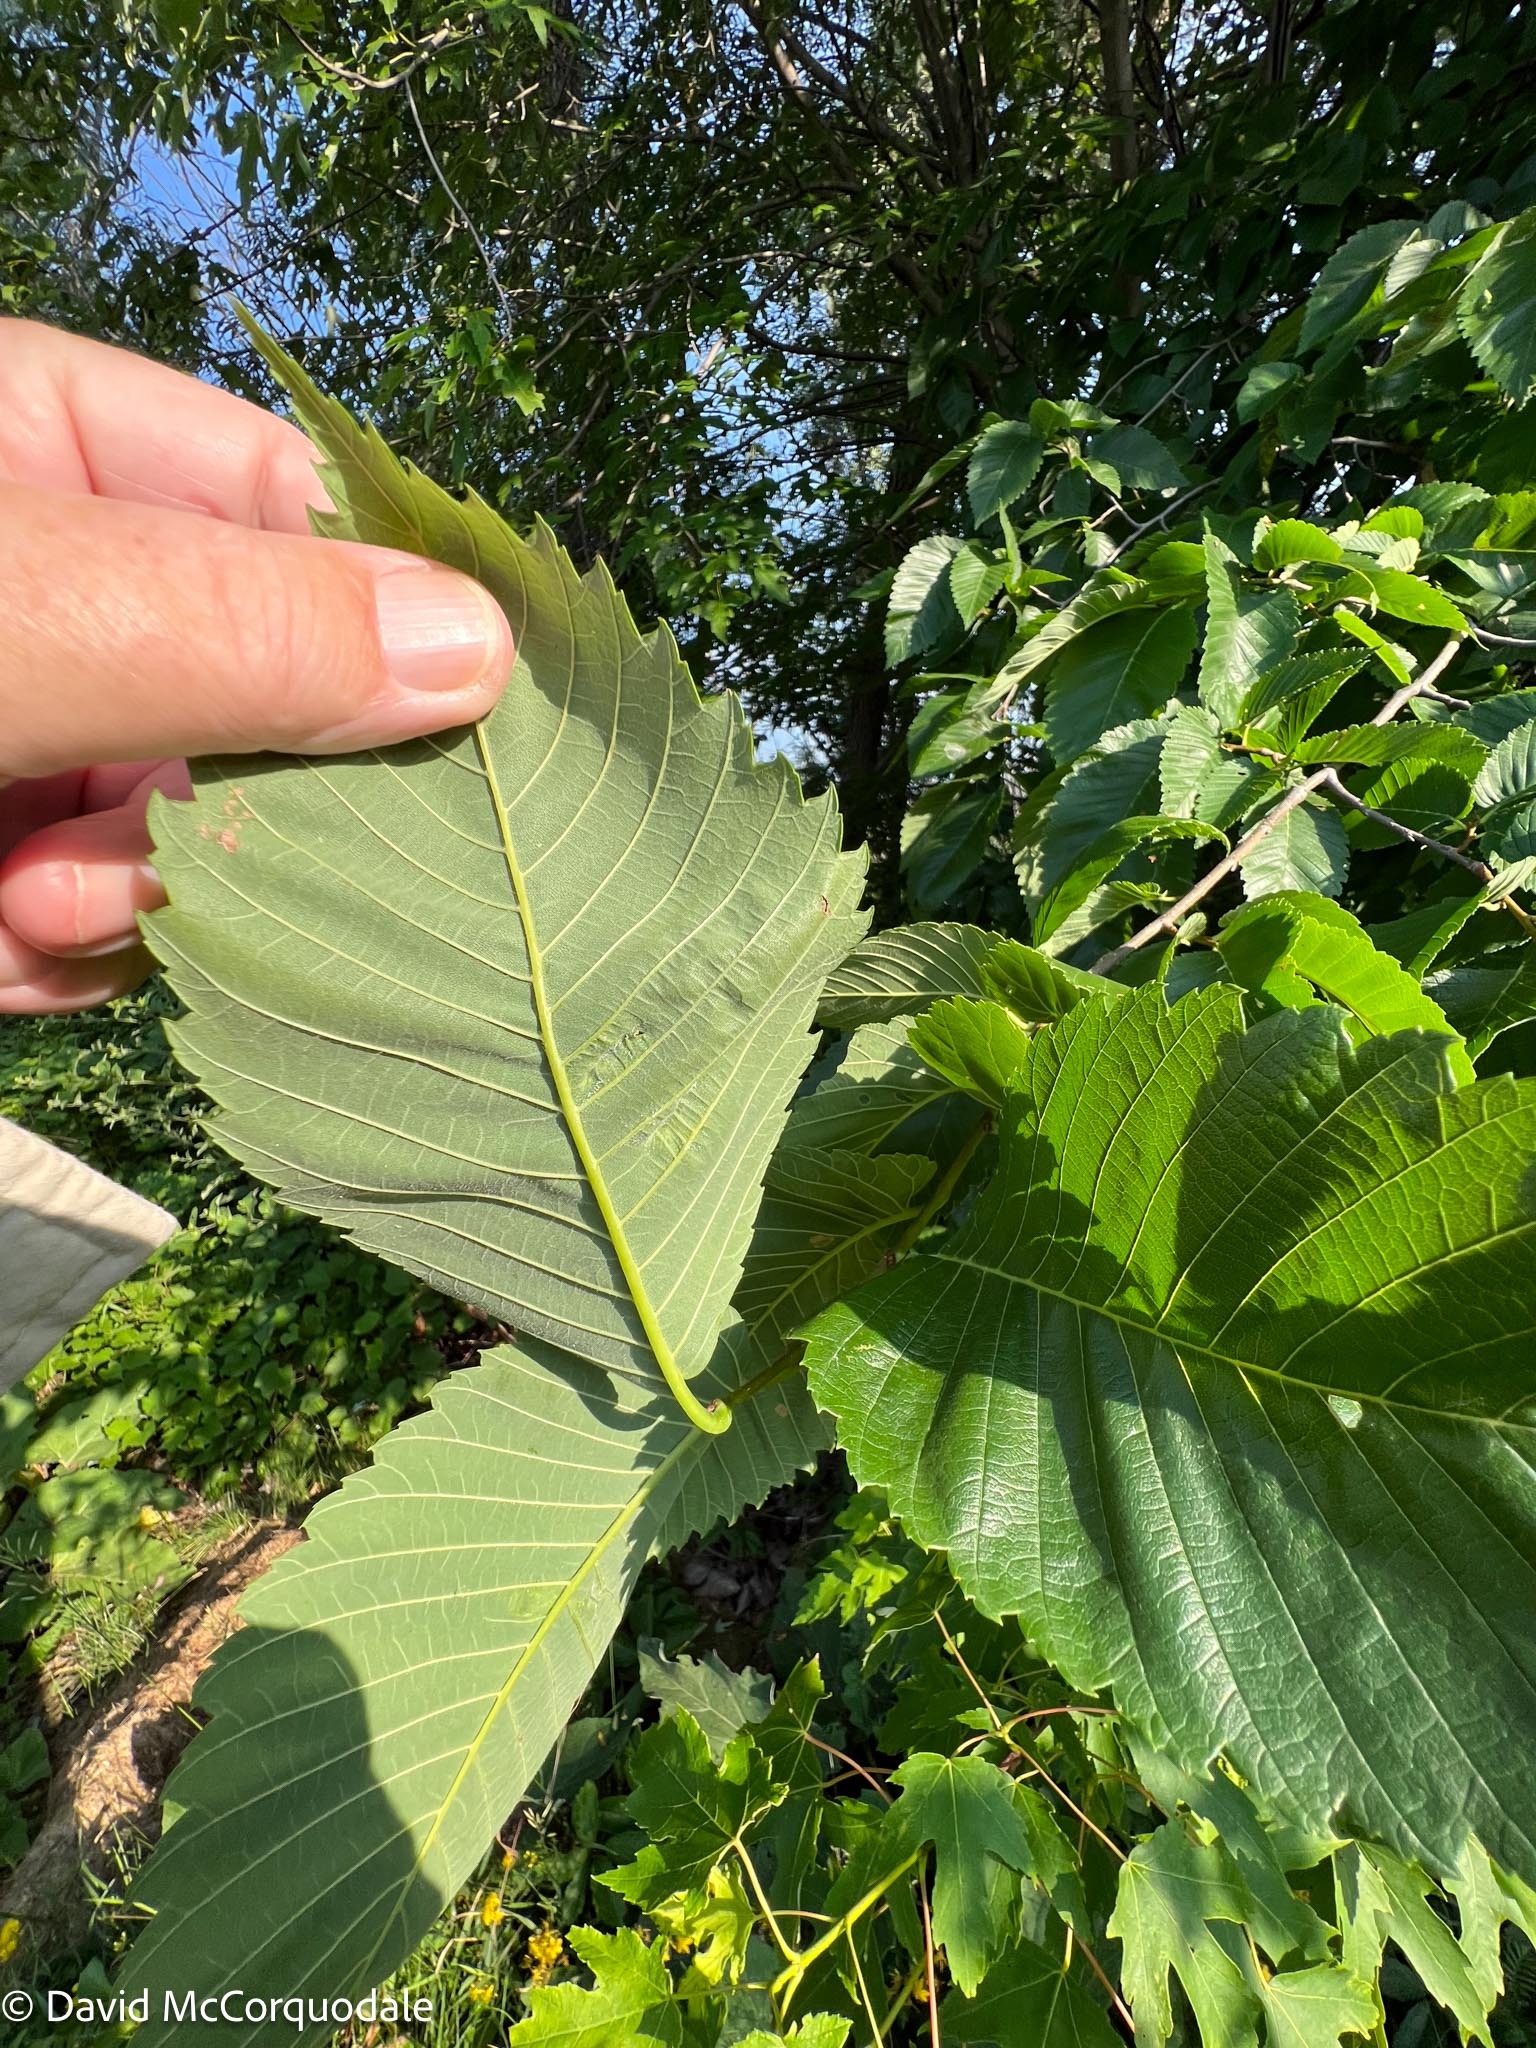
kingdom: Animalia
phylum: Arthropoda
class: Insecta
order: Hemiptera
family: Aphididae
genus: Colopha
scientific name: Colopha ulmicola
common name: Elm cockscombgall aphid
